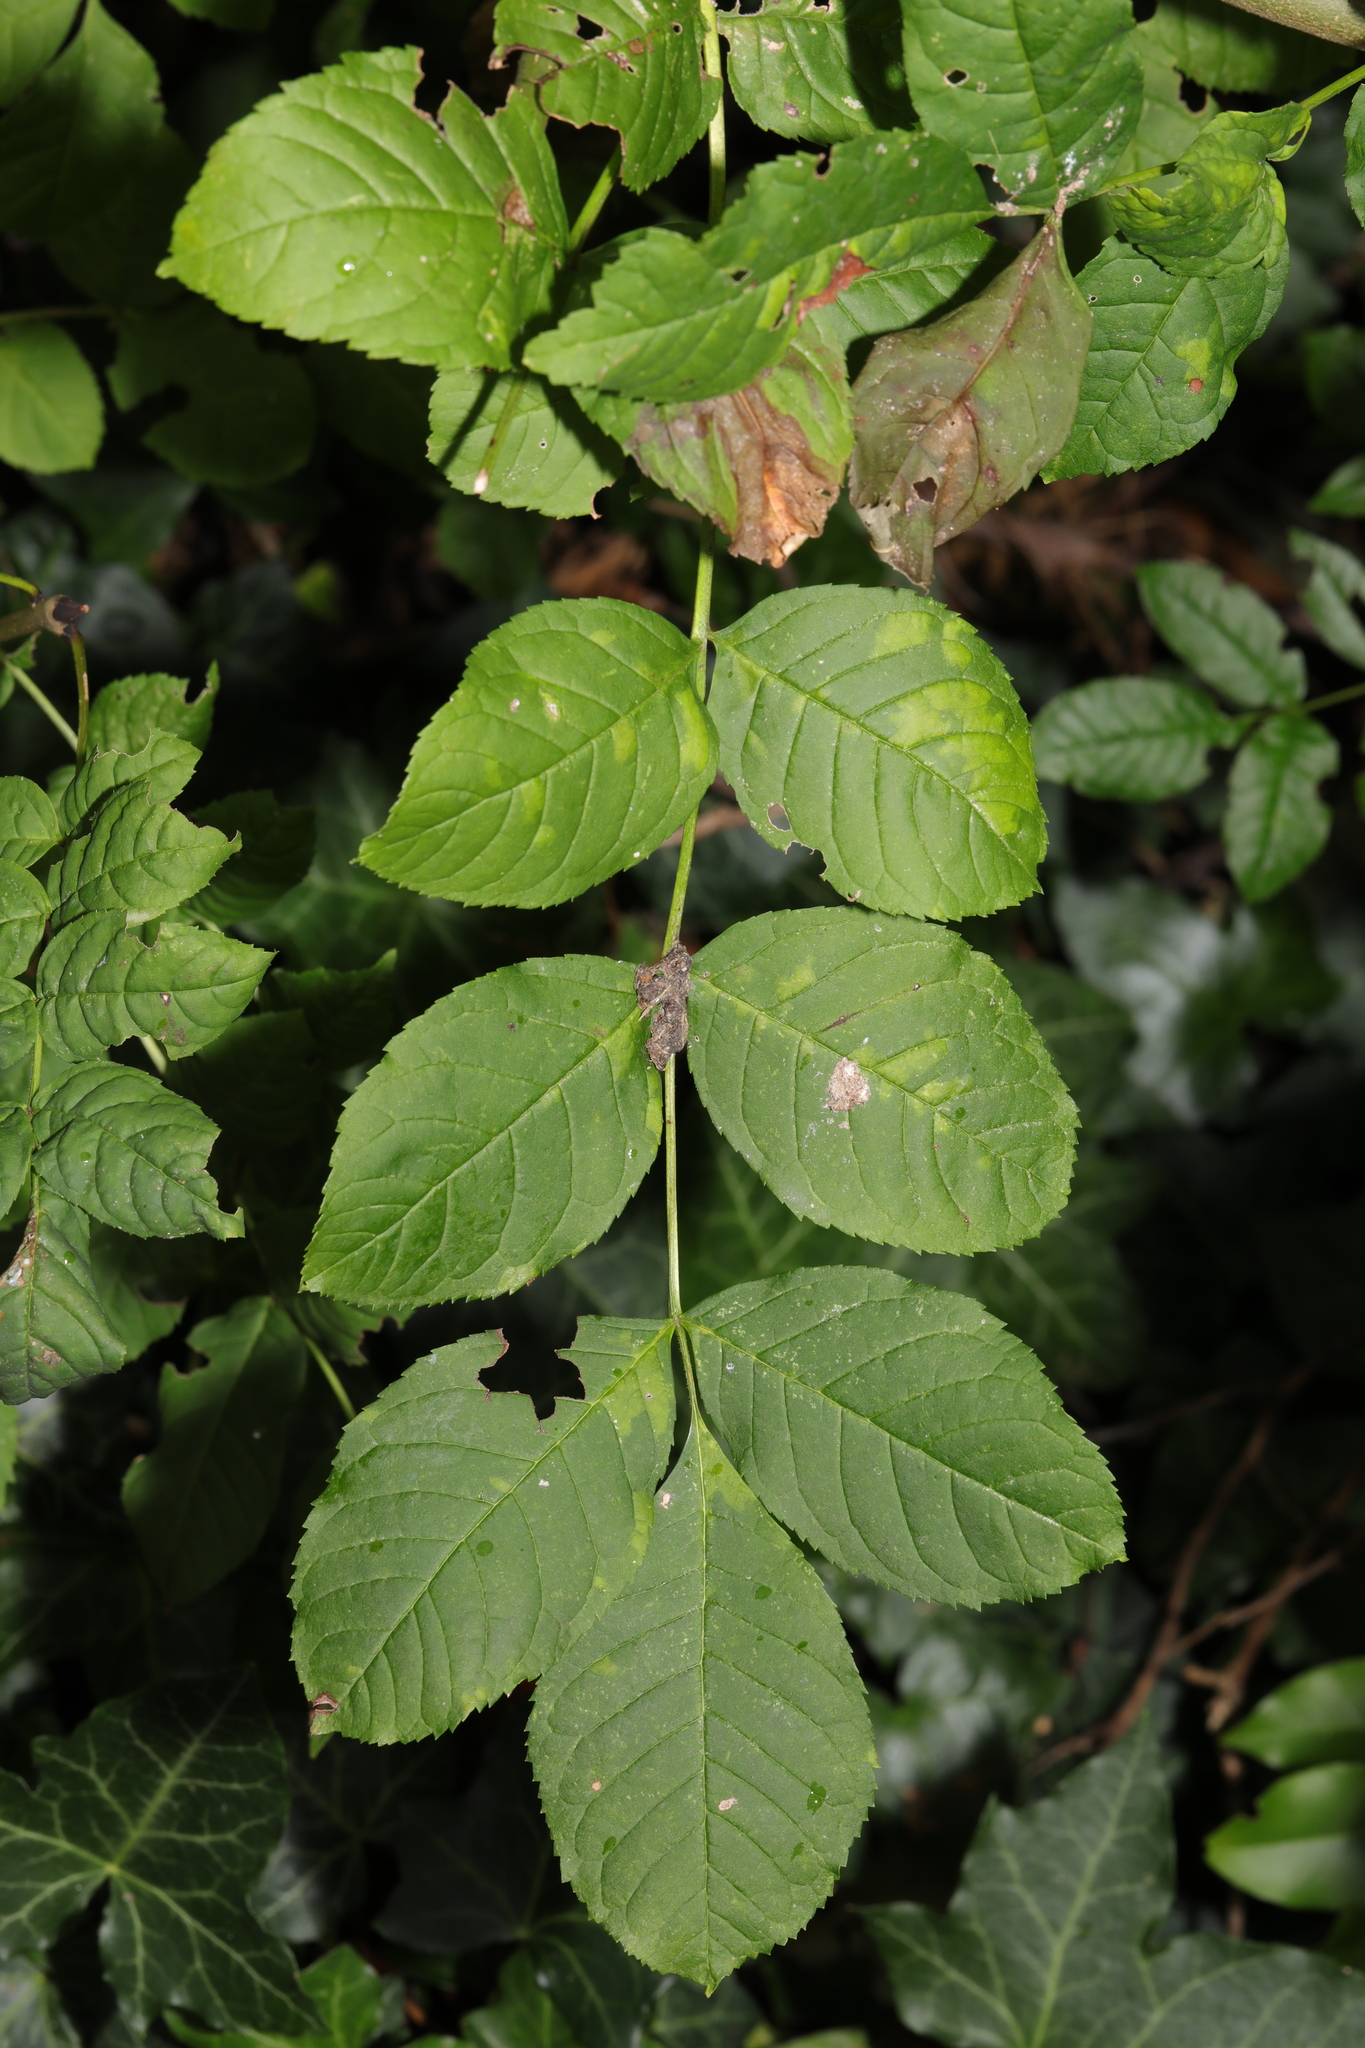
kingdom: Plantae
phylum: Tracheophyta
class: Magnoliopsida
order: Lamiales
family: Oleaceae
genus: Fraxinus
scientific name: Fraxinus excelsior
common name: European ash
